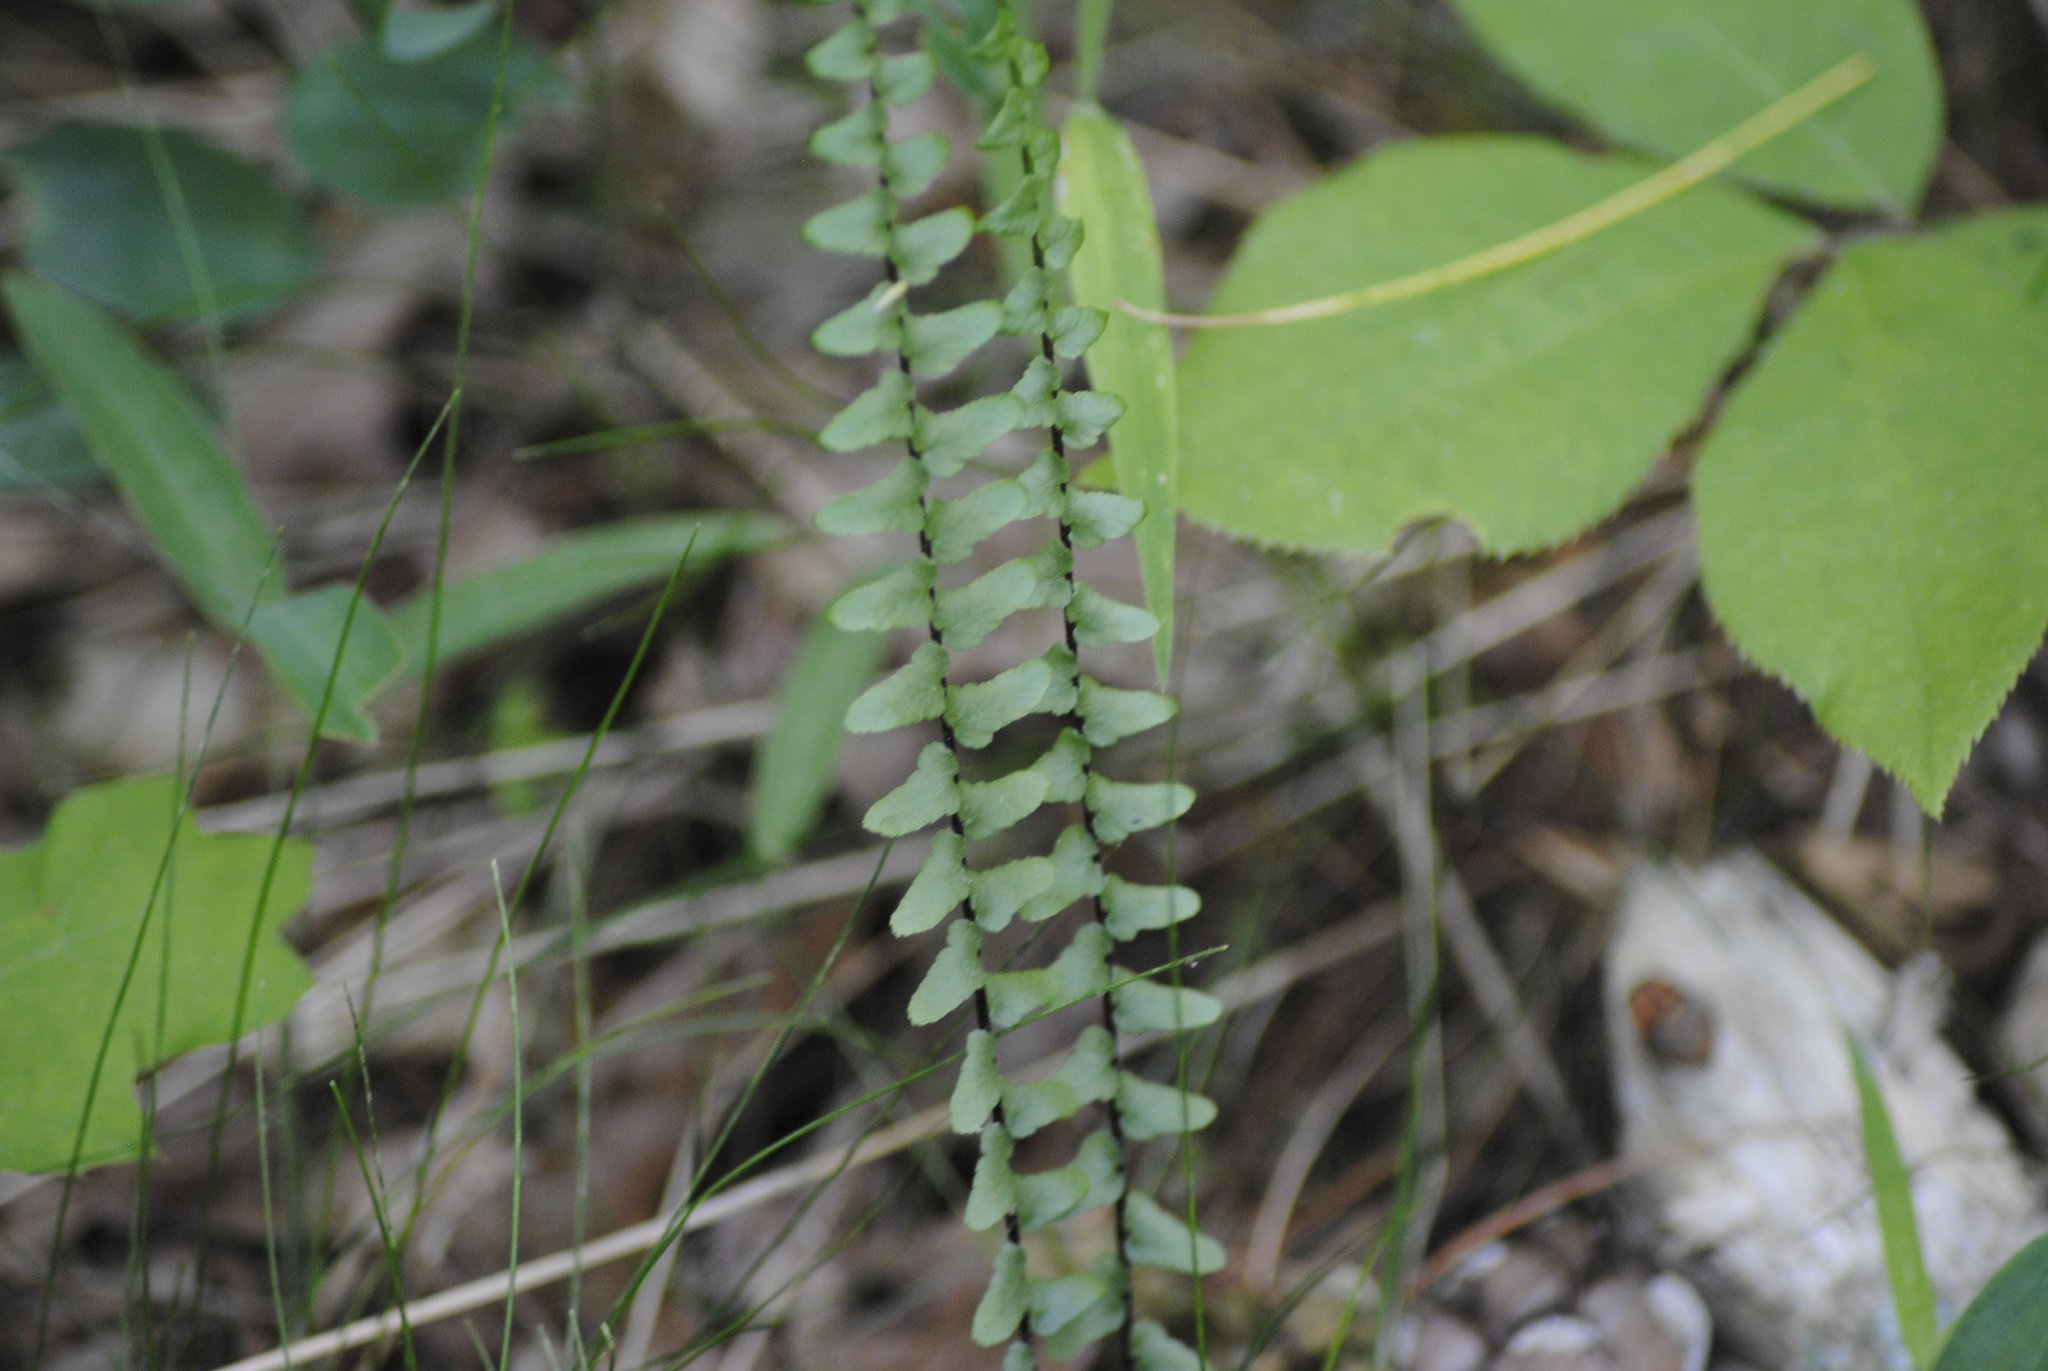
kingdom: Plantae
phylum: Tracheophyta
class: Polypodiopsida
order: Polypodiales
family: Aspleniaceae
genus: Asplenium
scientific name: Asplenium platyneuron
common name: Ebony spleenwort
